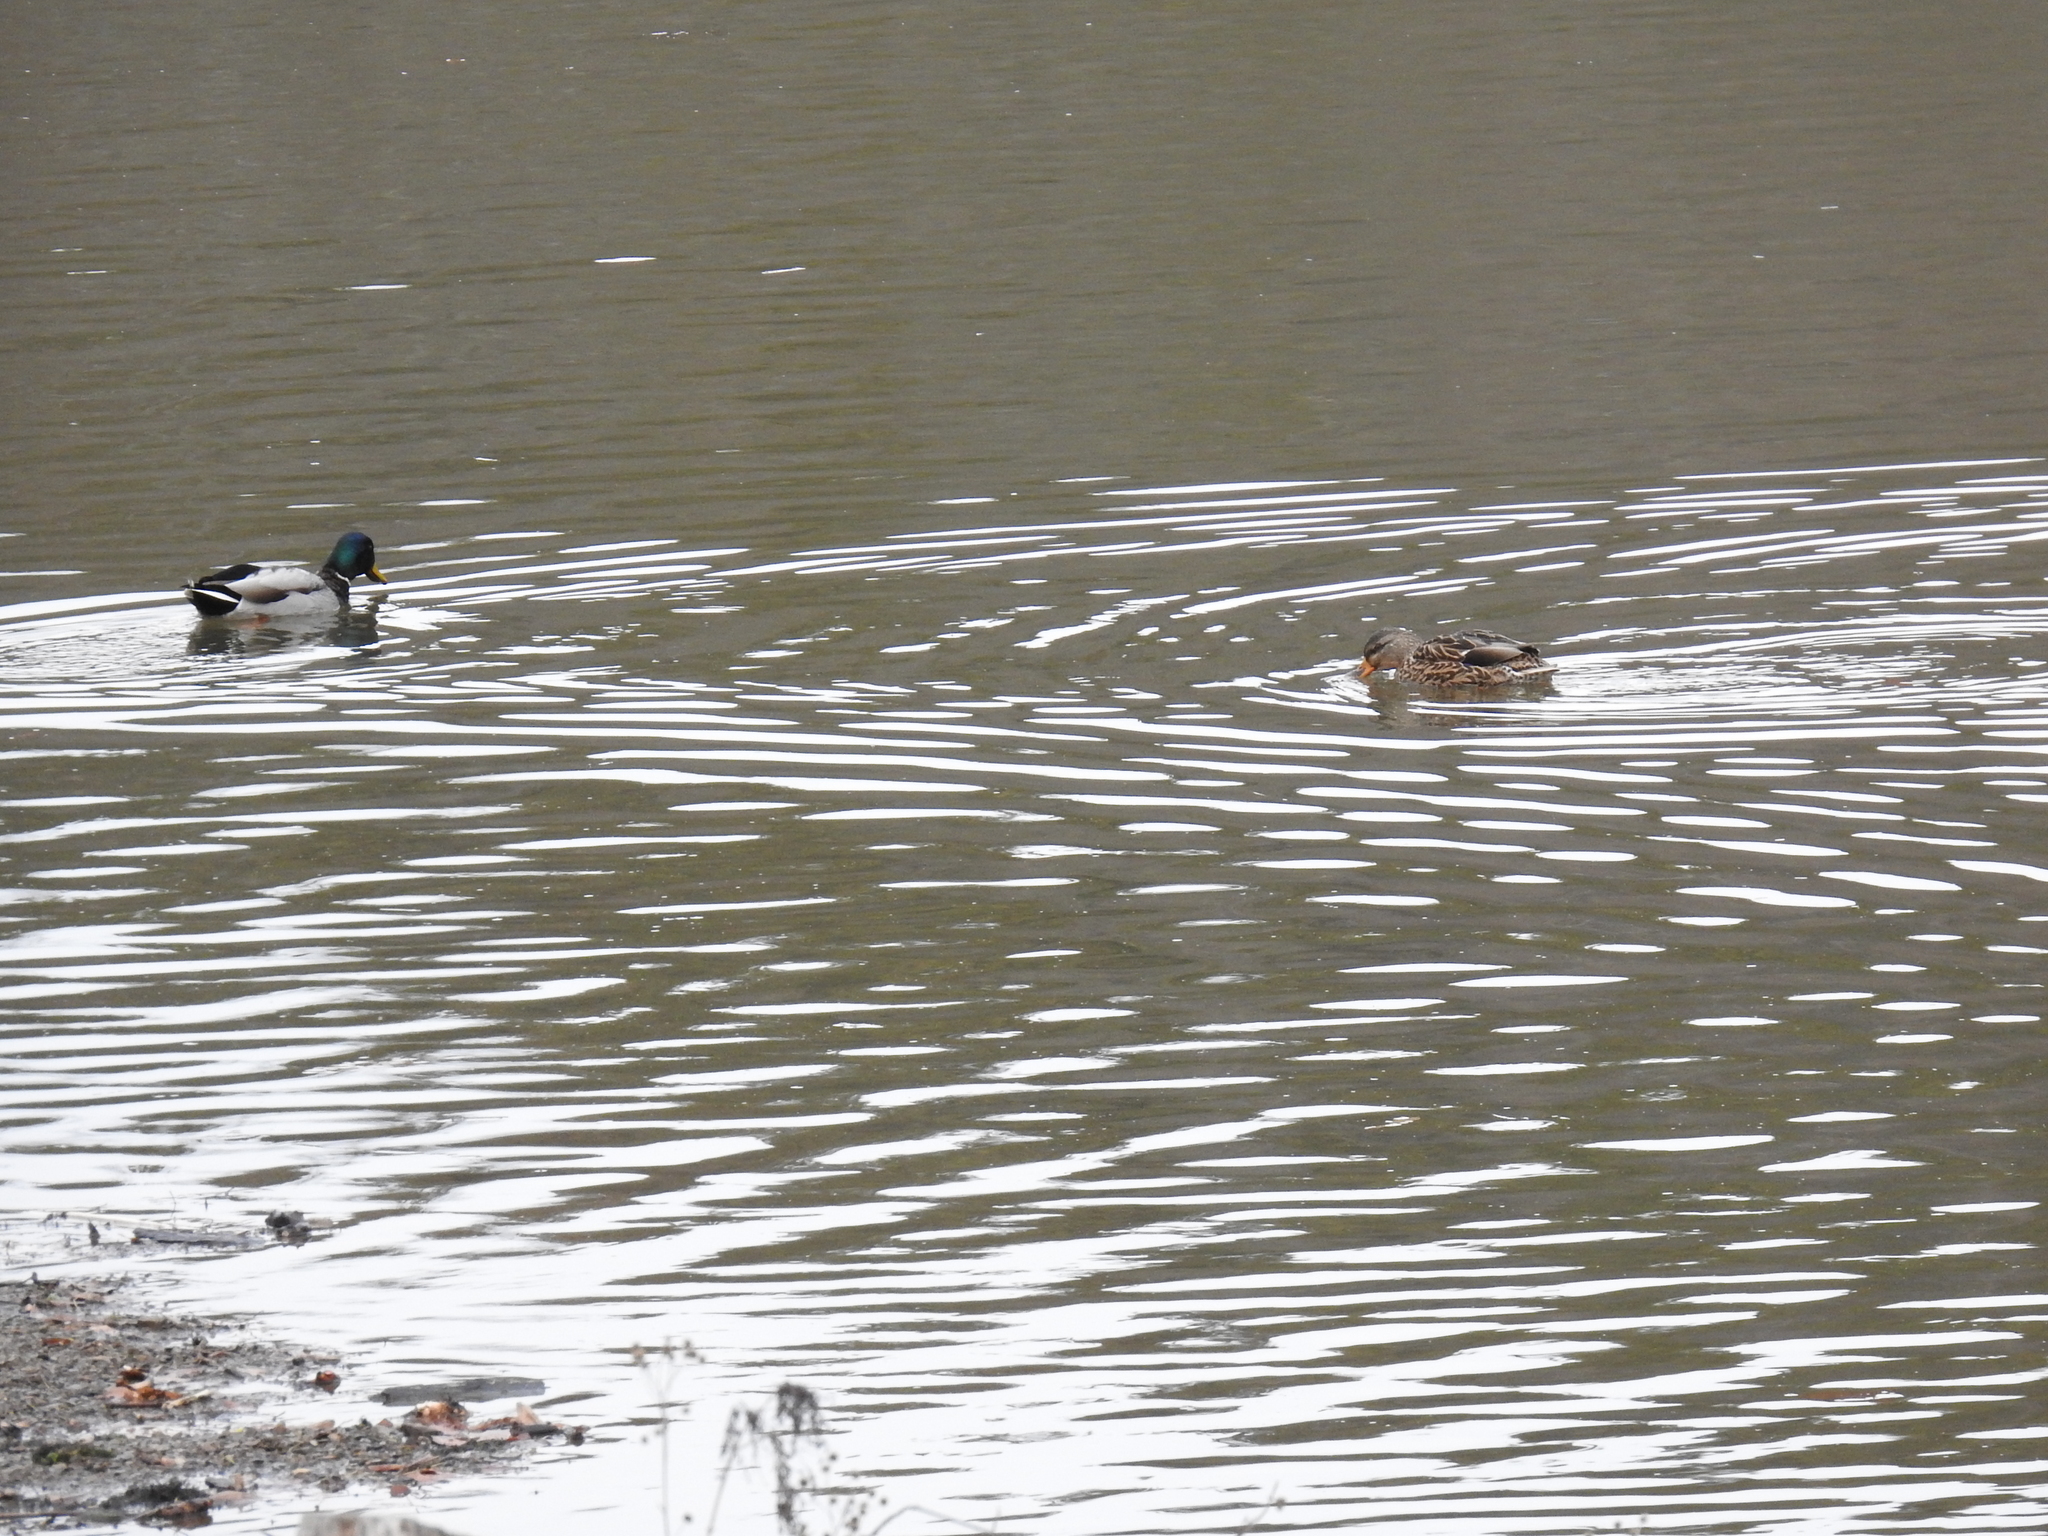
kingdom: Animalia
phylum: Chordata
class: Aves
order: Anseriformes
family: Anatidae
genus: Anas
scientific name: Anas platyrhynchos
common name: Mallard
